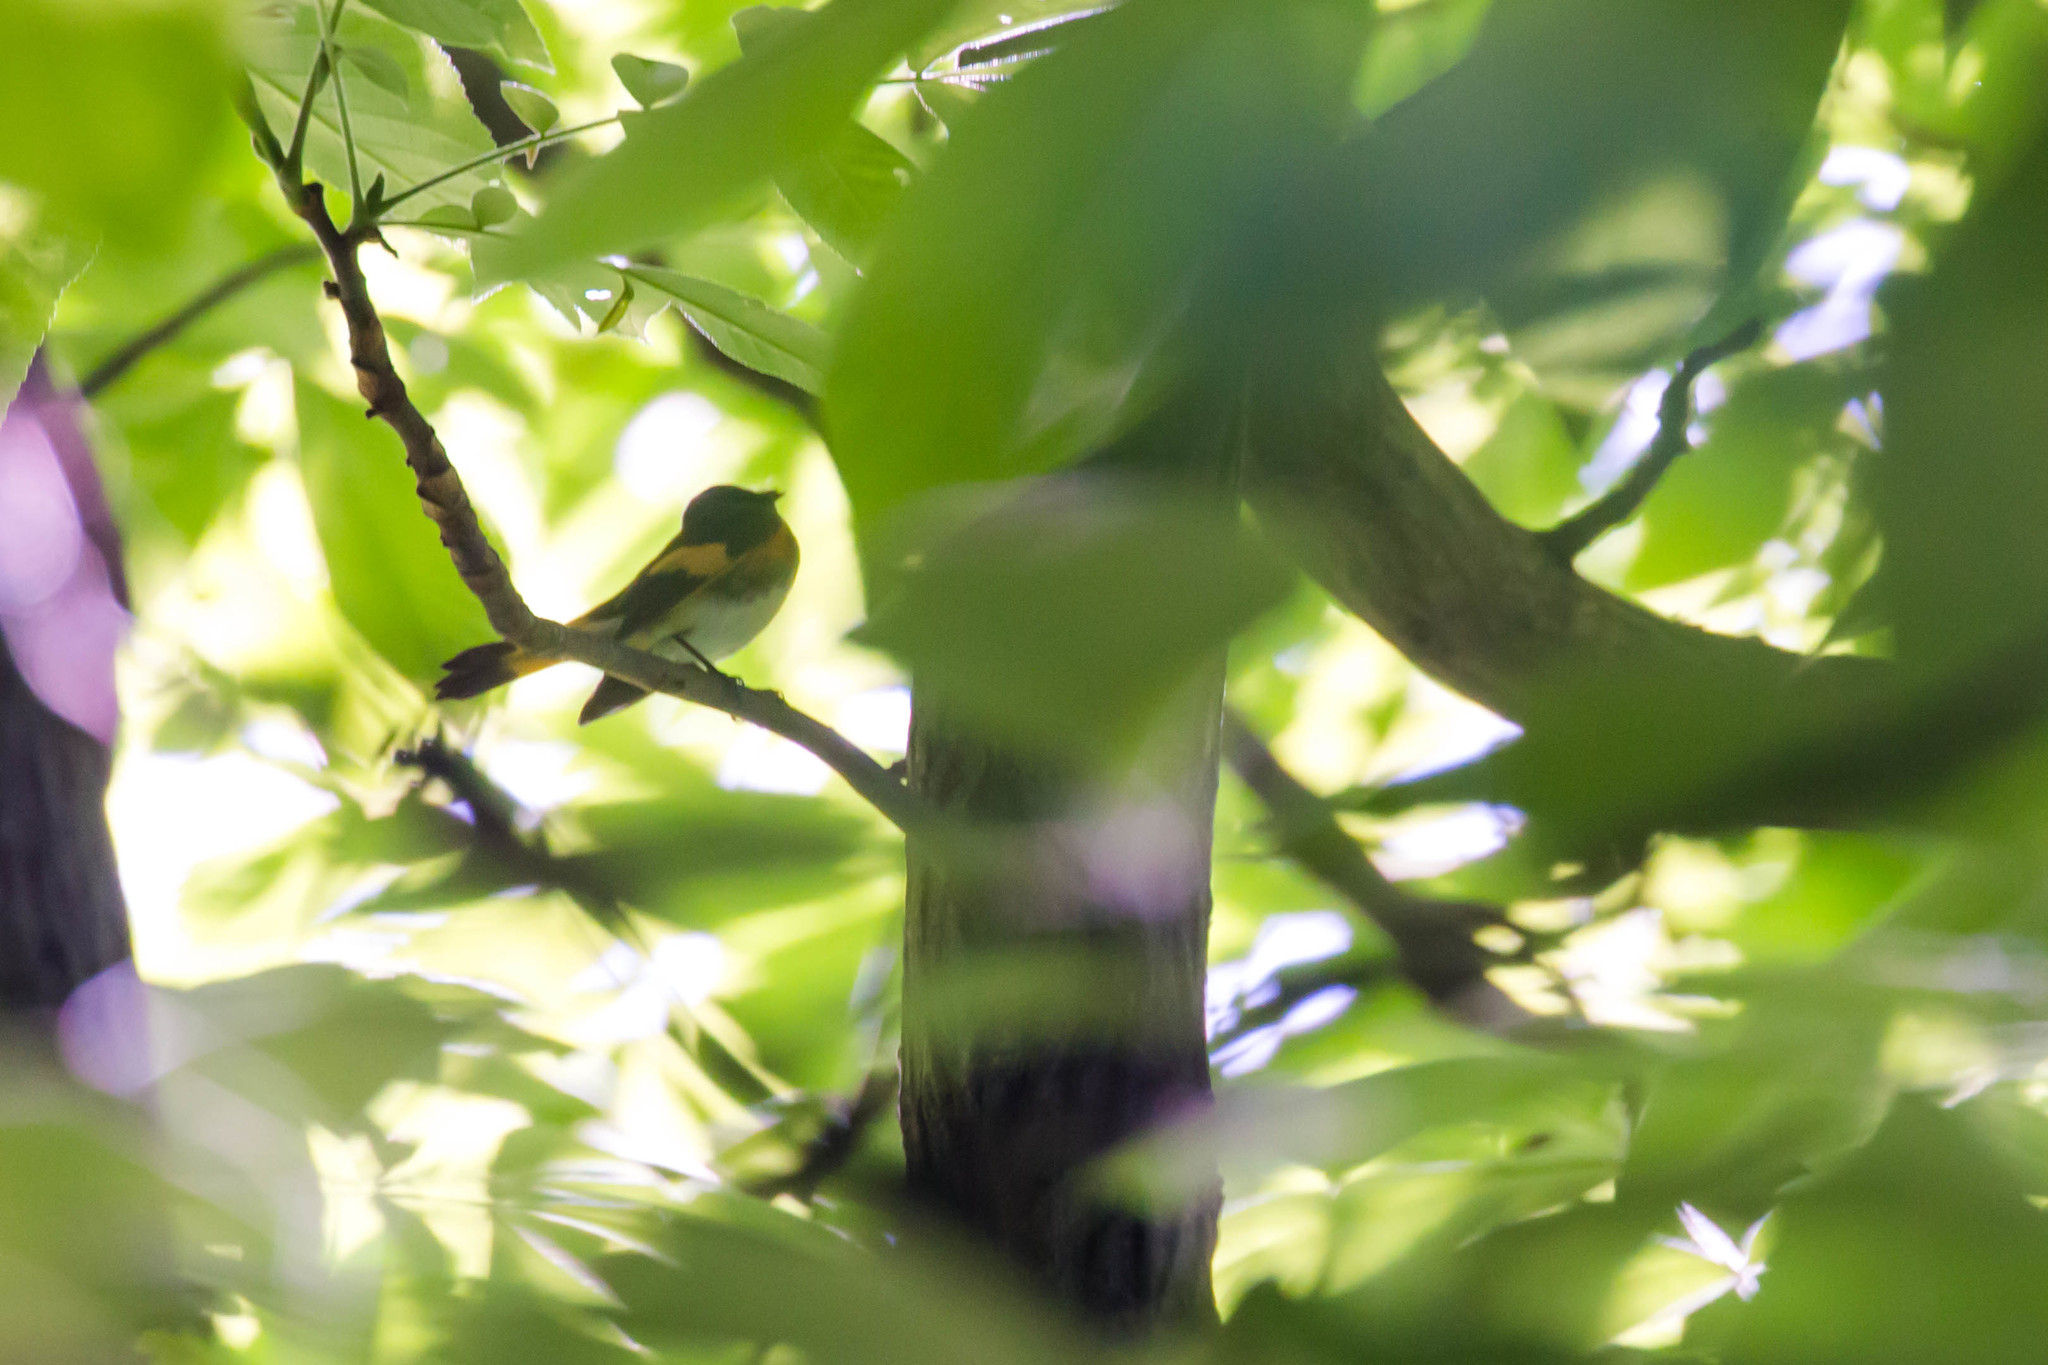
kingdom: Animalia
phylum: Chordata
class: Aves
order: Passeriformes
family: Parulidae
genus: Setophaga
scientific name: Setophaga ruticilla
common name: American redstart
